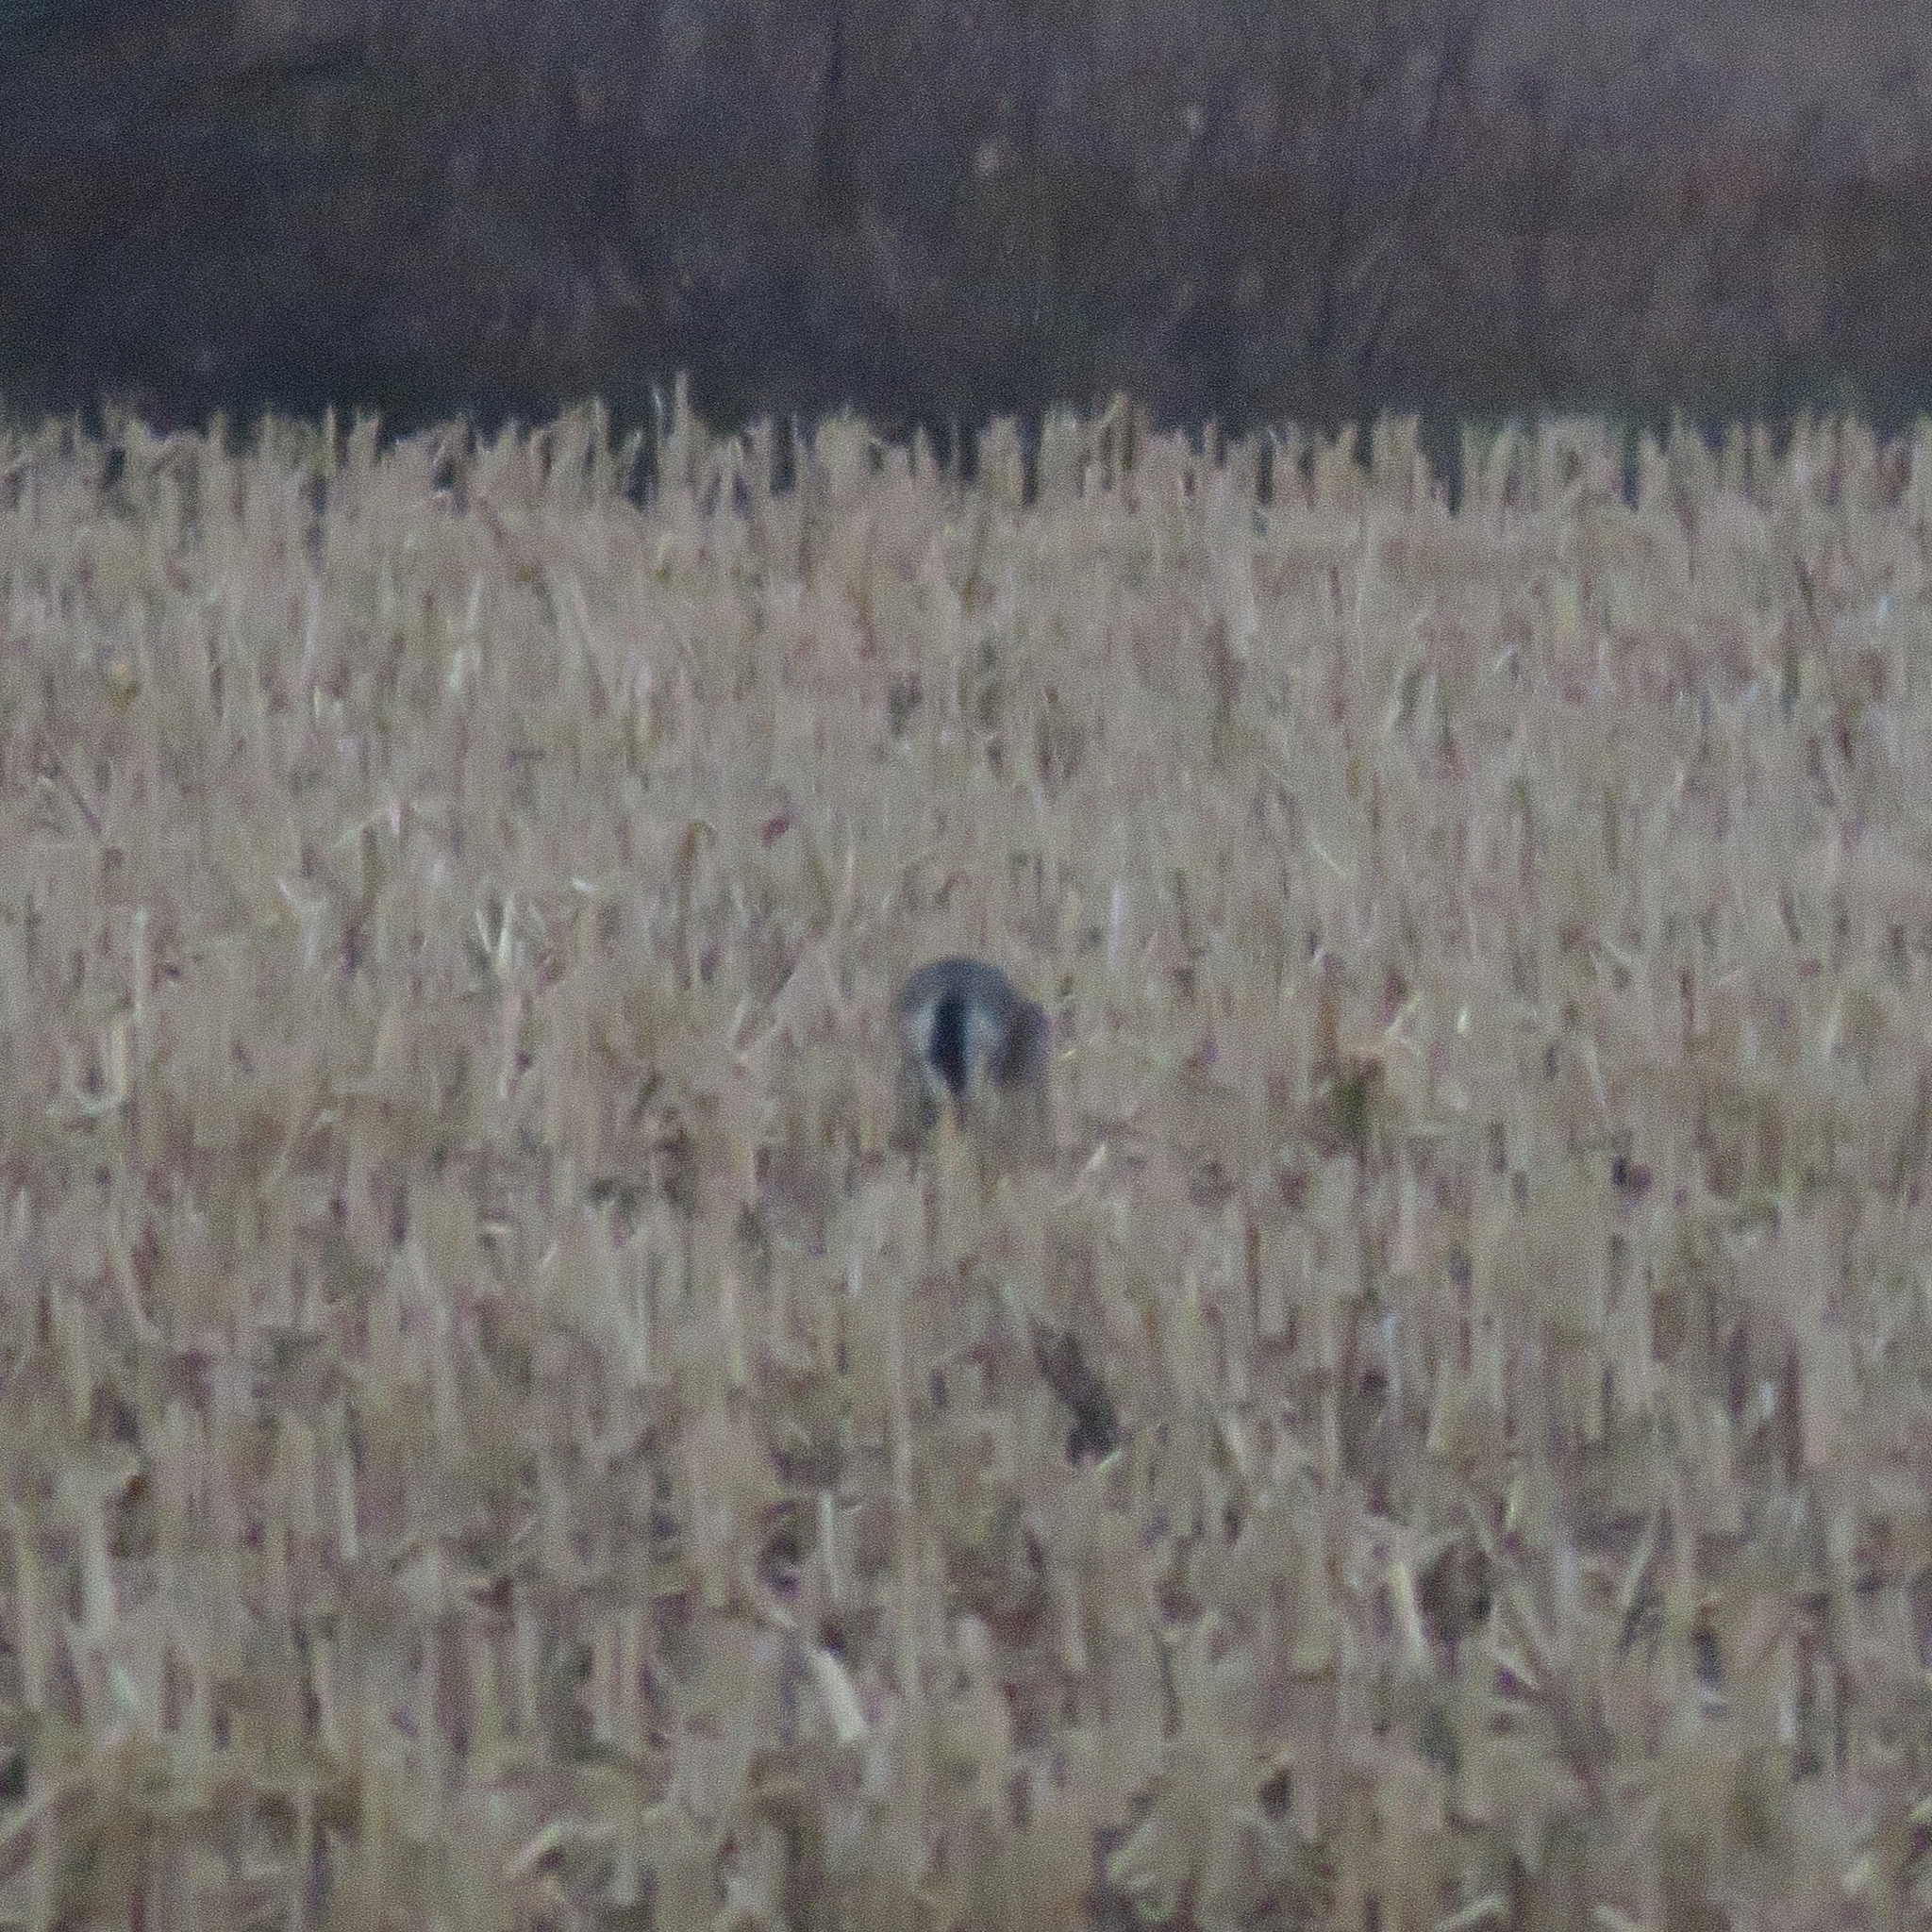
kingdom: Animalia
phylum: Chordata
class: Mammalia
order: Lagomorpha
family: Leporidae
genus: Lepus
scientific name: Lepus europaeus
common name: European hare
